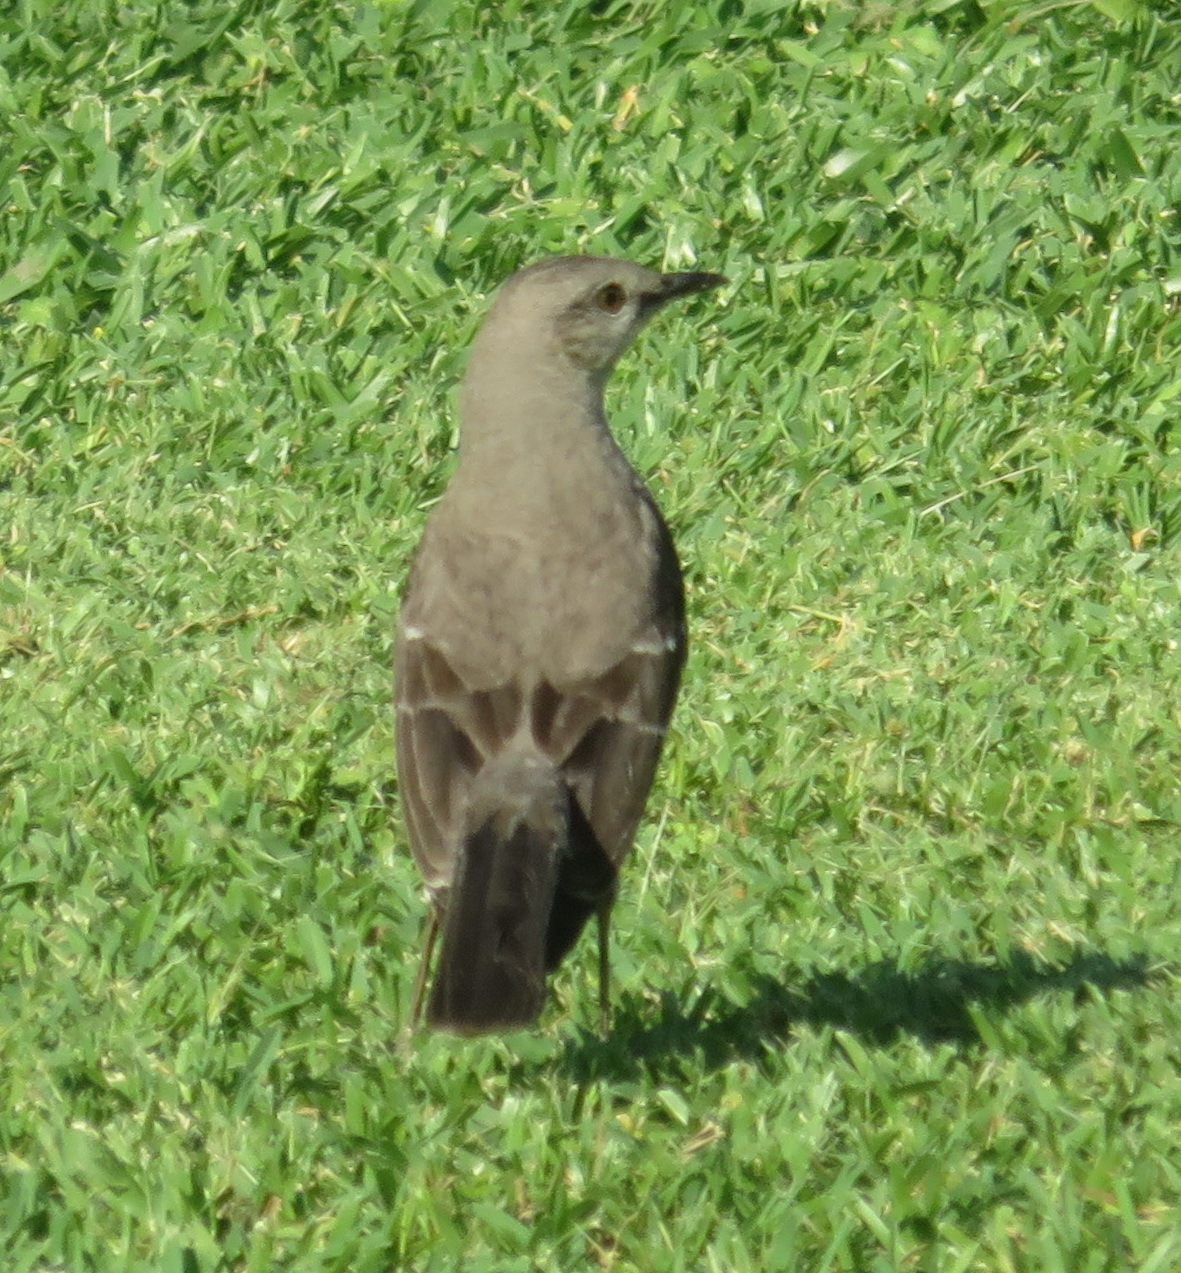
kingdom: Animalia
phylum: Chordata
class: Aves
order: Passeriformes
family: Mimidae
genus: Mimus
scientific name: Mimus polyglottos
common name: Northern mockingbird
